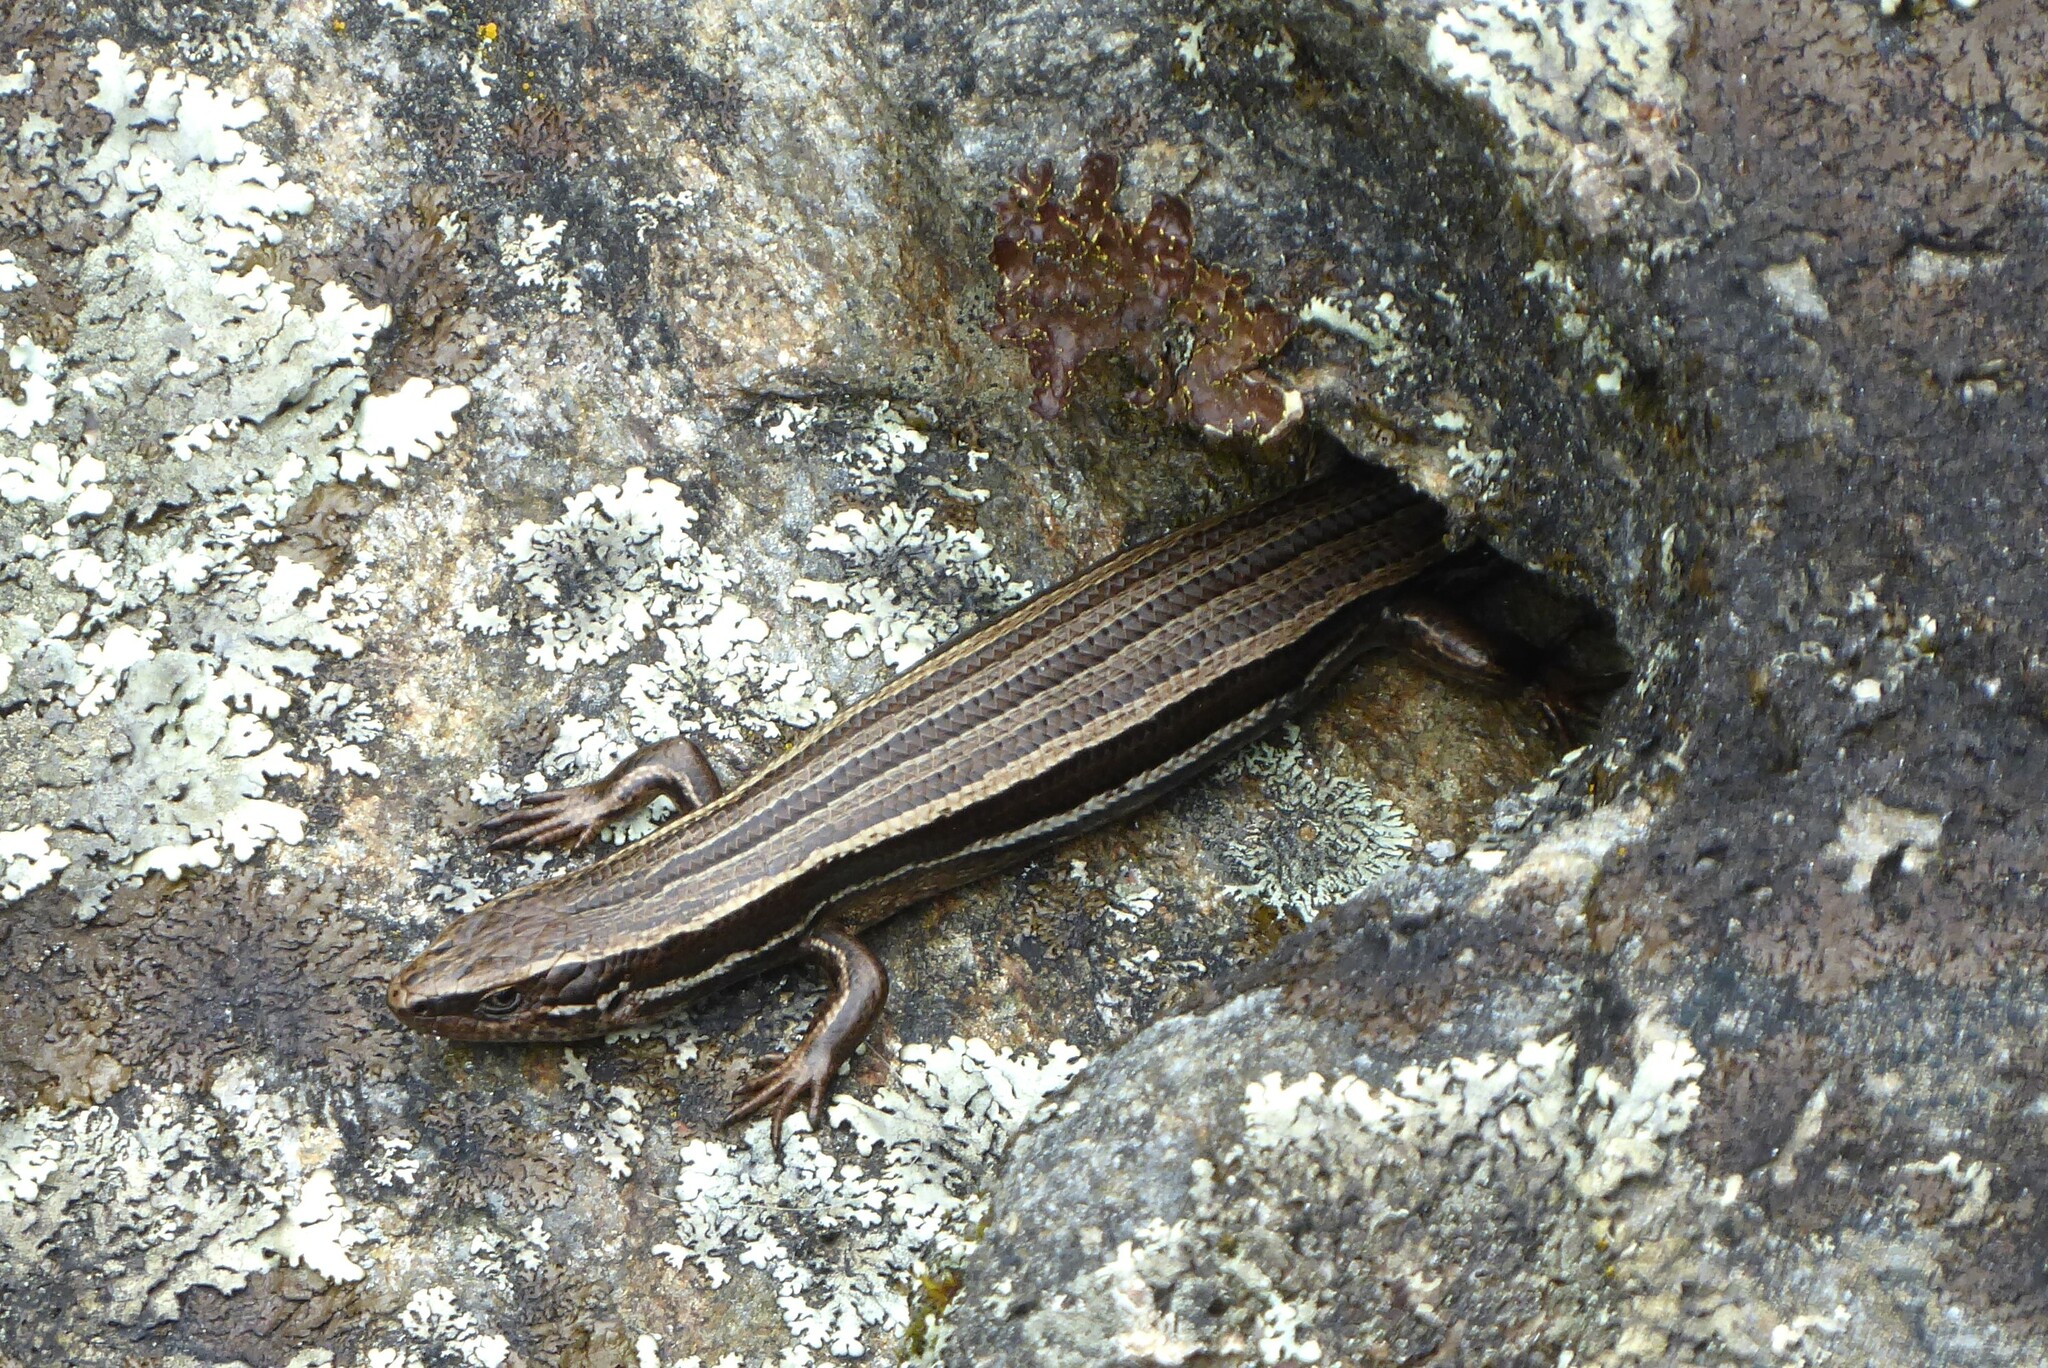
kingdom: Animalia
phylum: Chordata
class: Squamata
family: Scincidae
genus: Oligosoma
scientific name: Oligosoma polychroma
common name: Common new zealand skink
